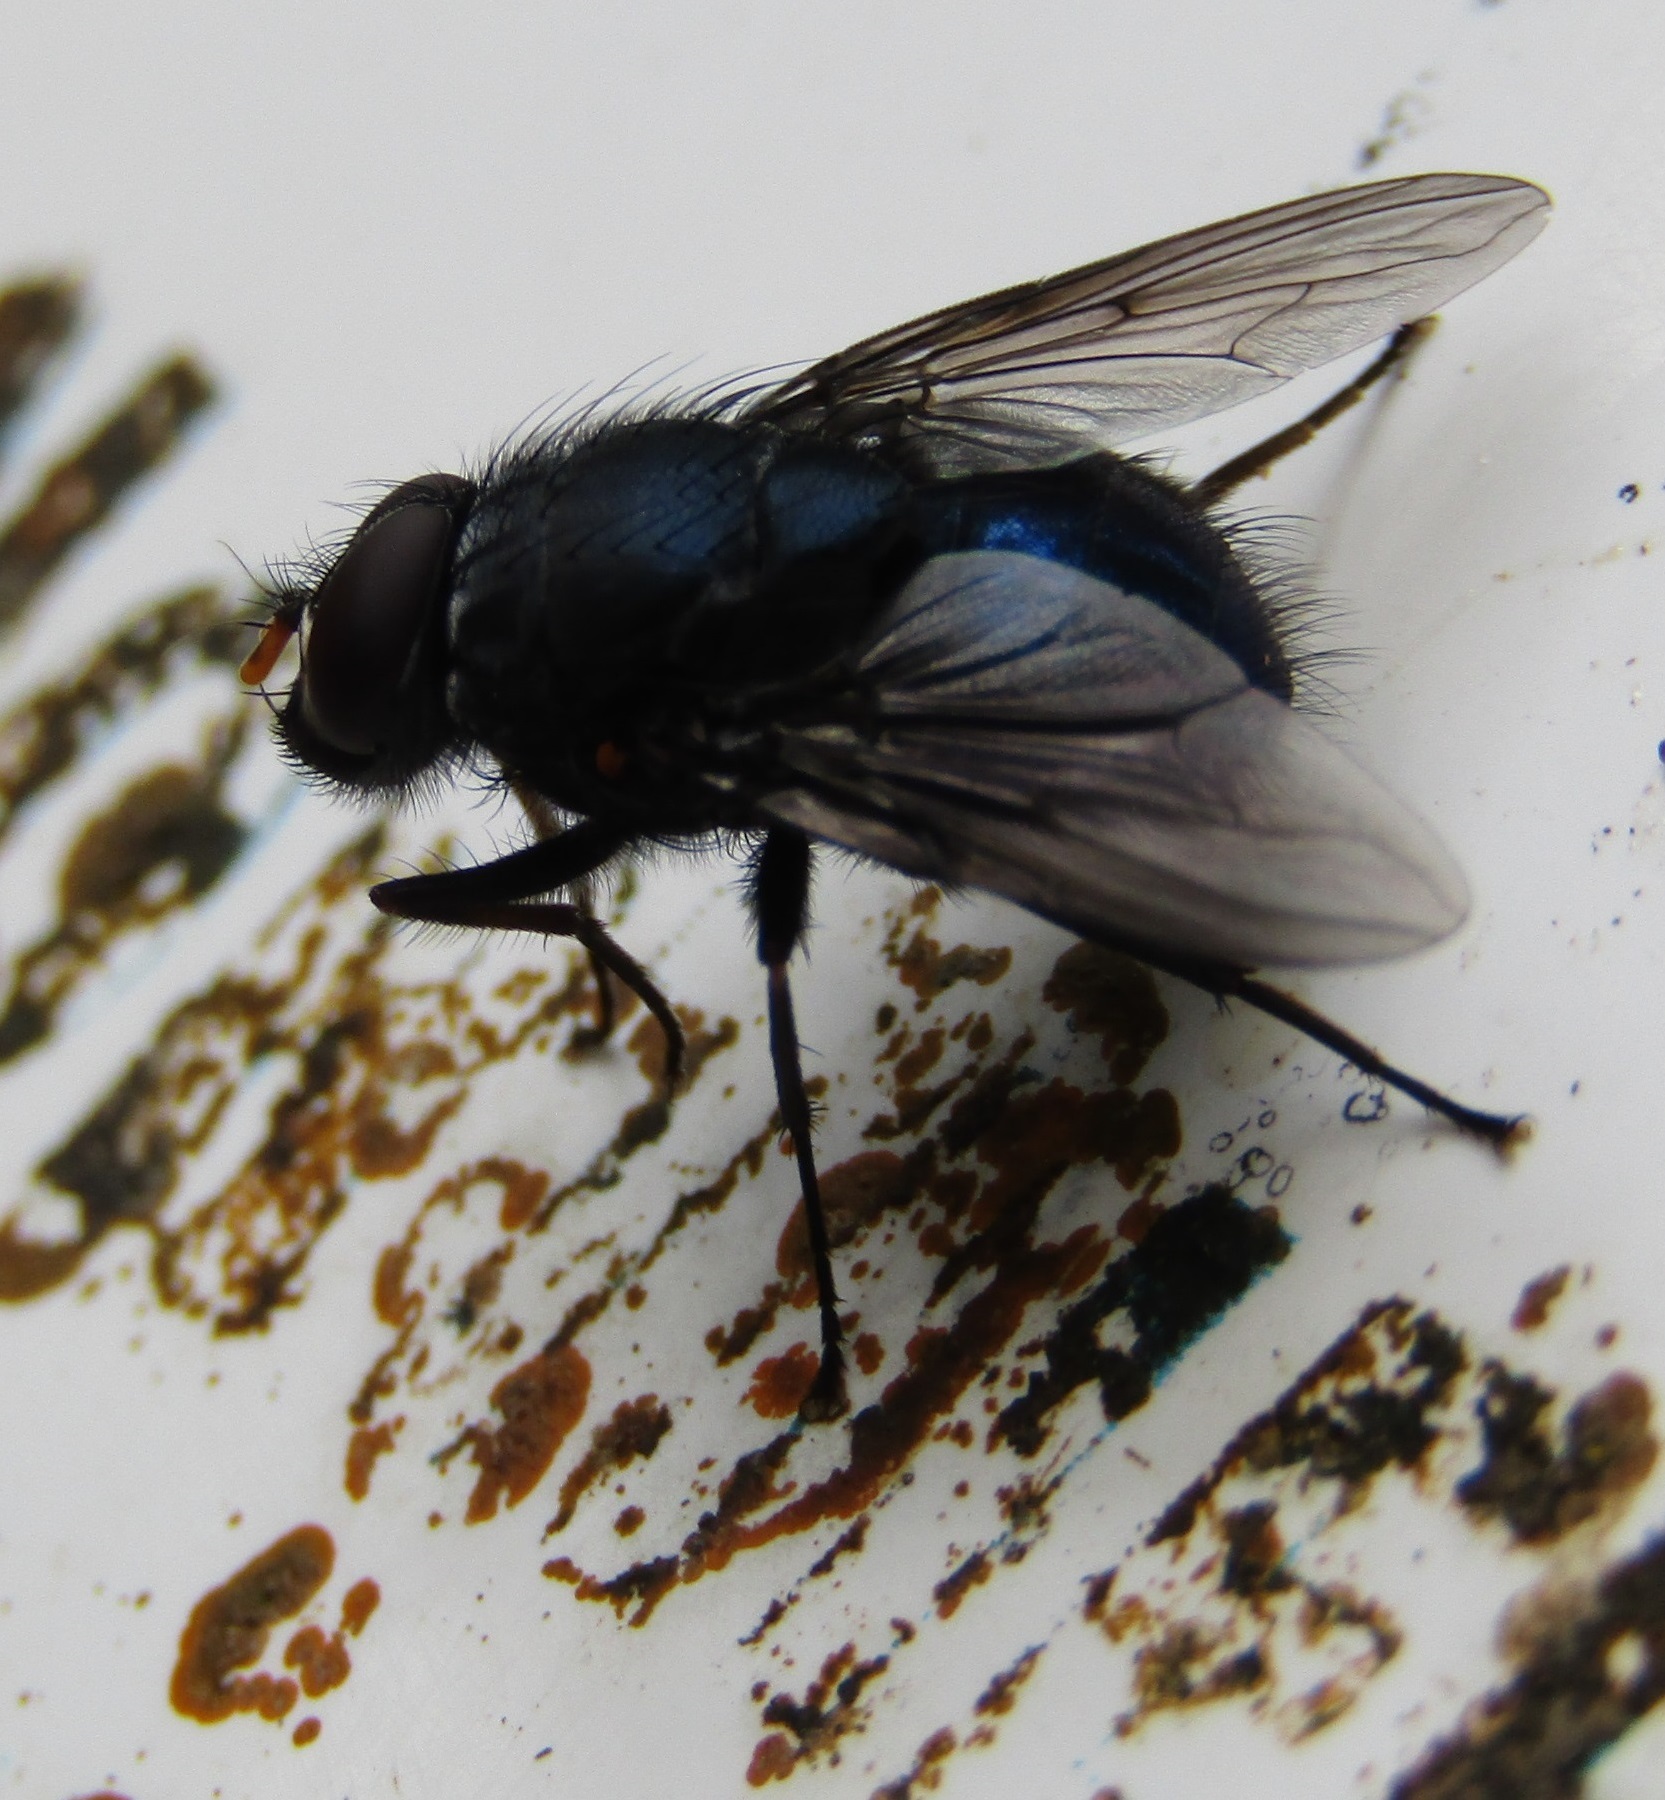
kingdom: Animalia
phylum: Arthropoda
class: Insecta
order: Diptera
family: Muscidae
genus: Calliphoroides
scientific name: Calliphoroides antennatis
